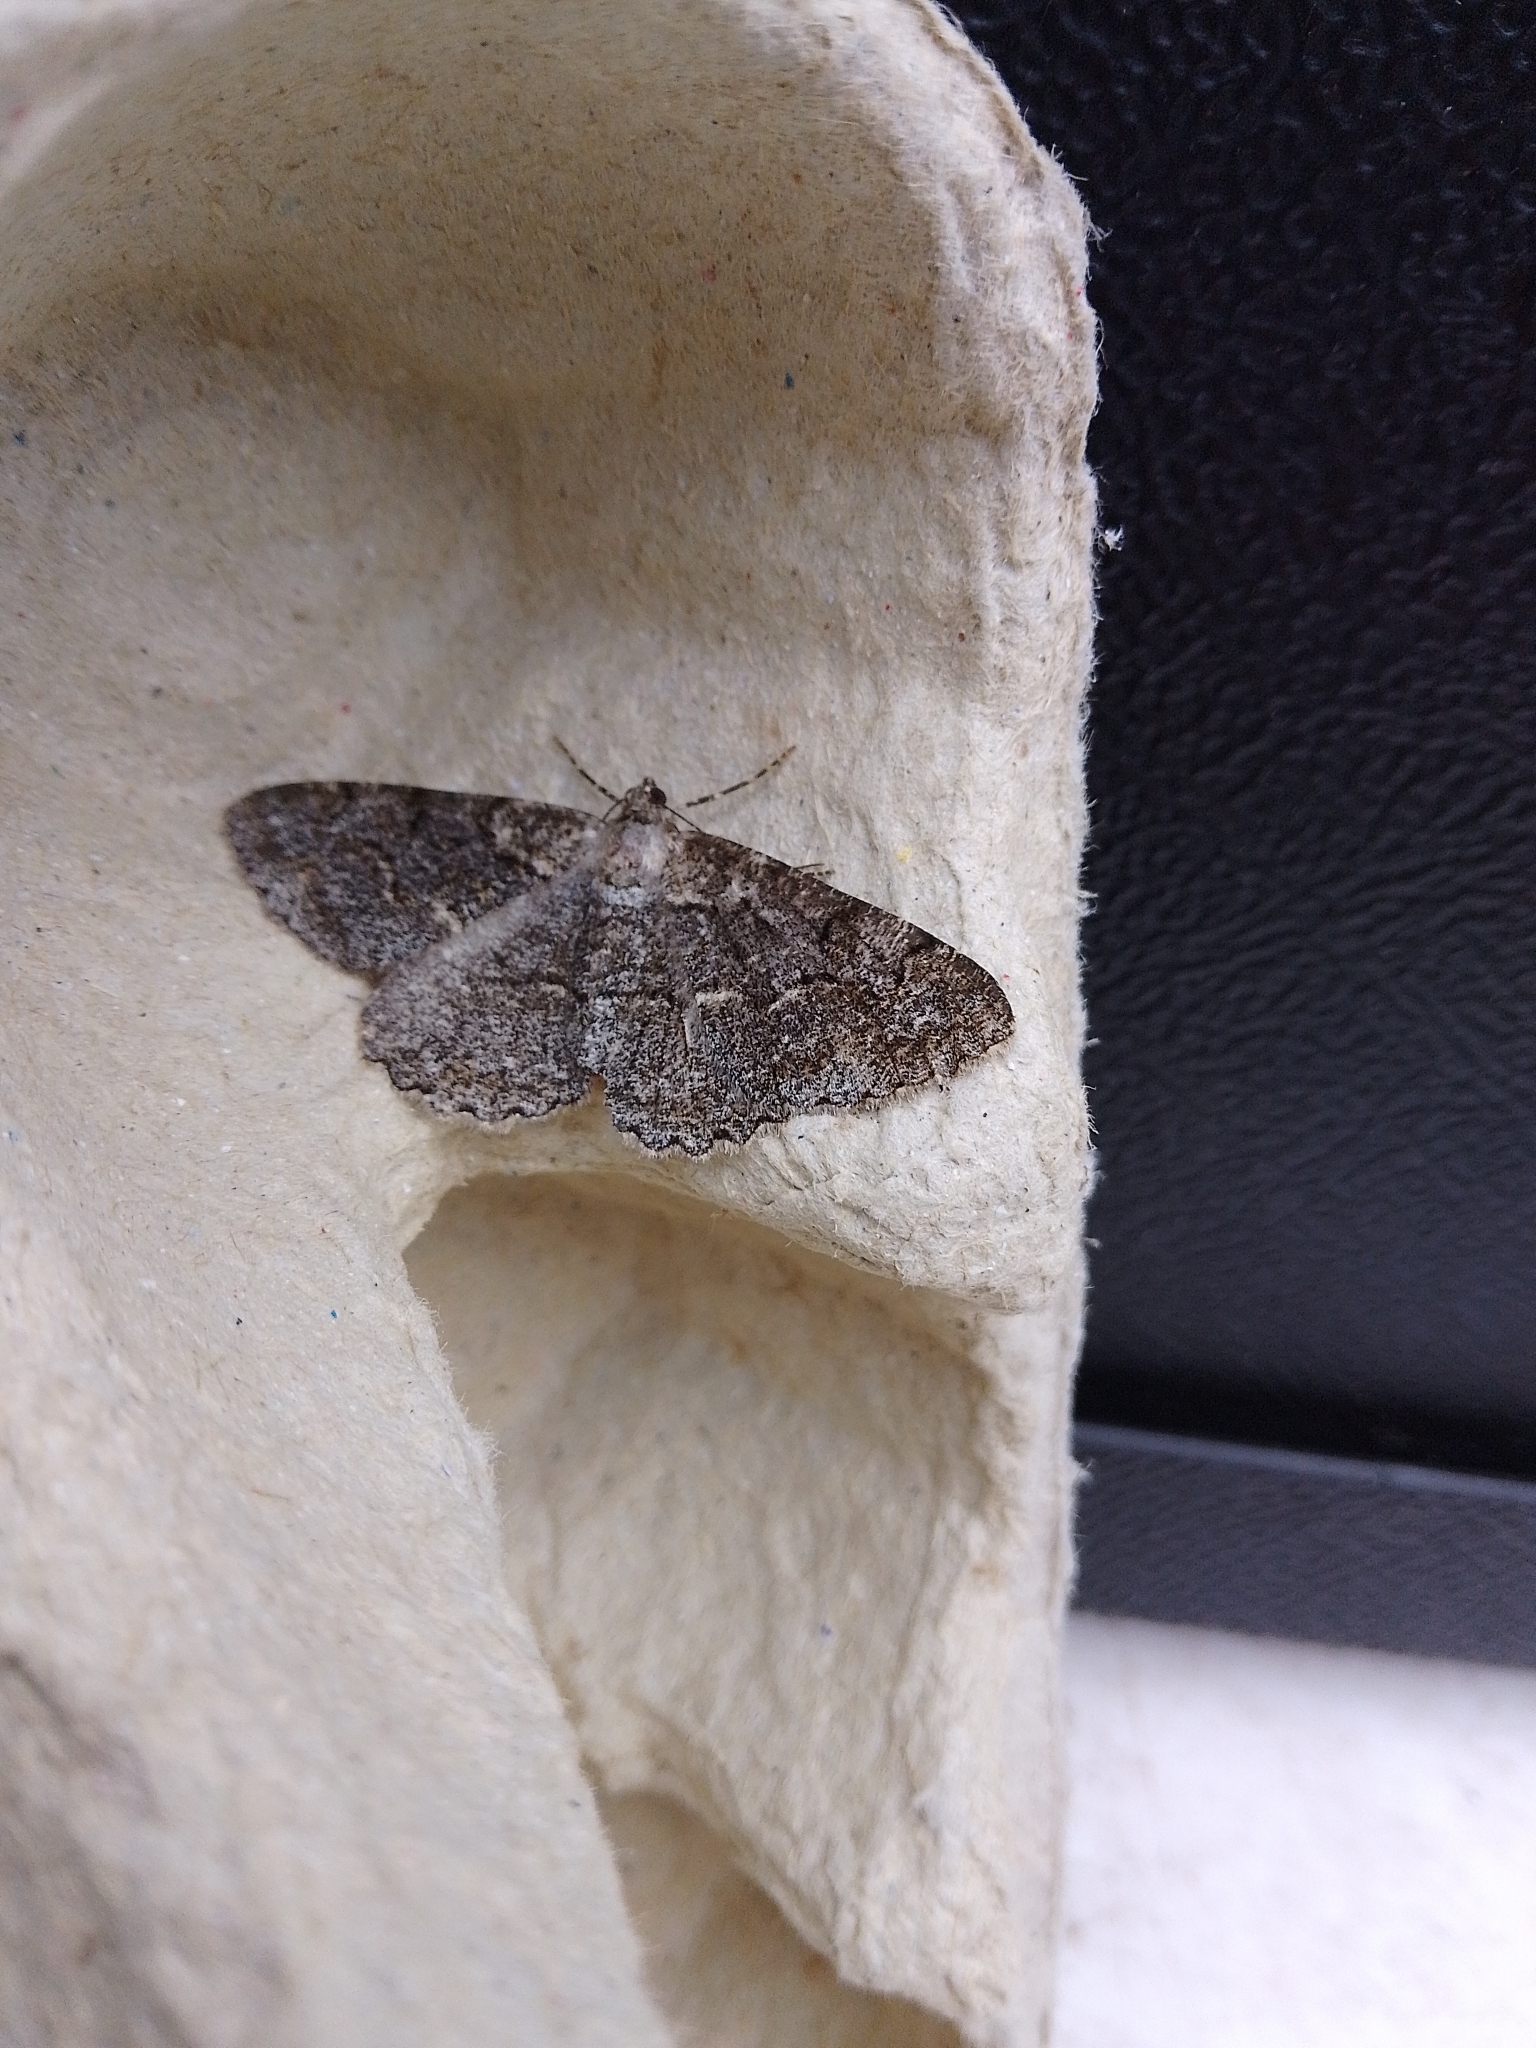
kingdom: Animalia
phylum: Arthropoda
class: Insecta
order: Lepidoptera
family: Geometridae
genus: Alcis
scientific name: Alcis repandata
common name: Mottled beauty
